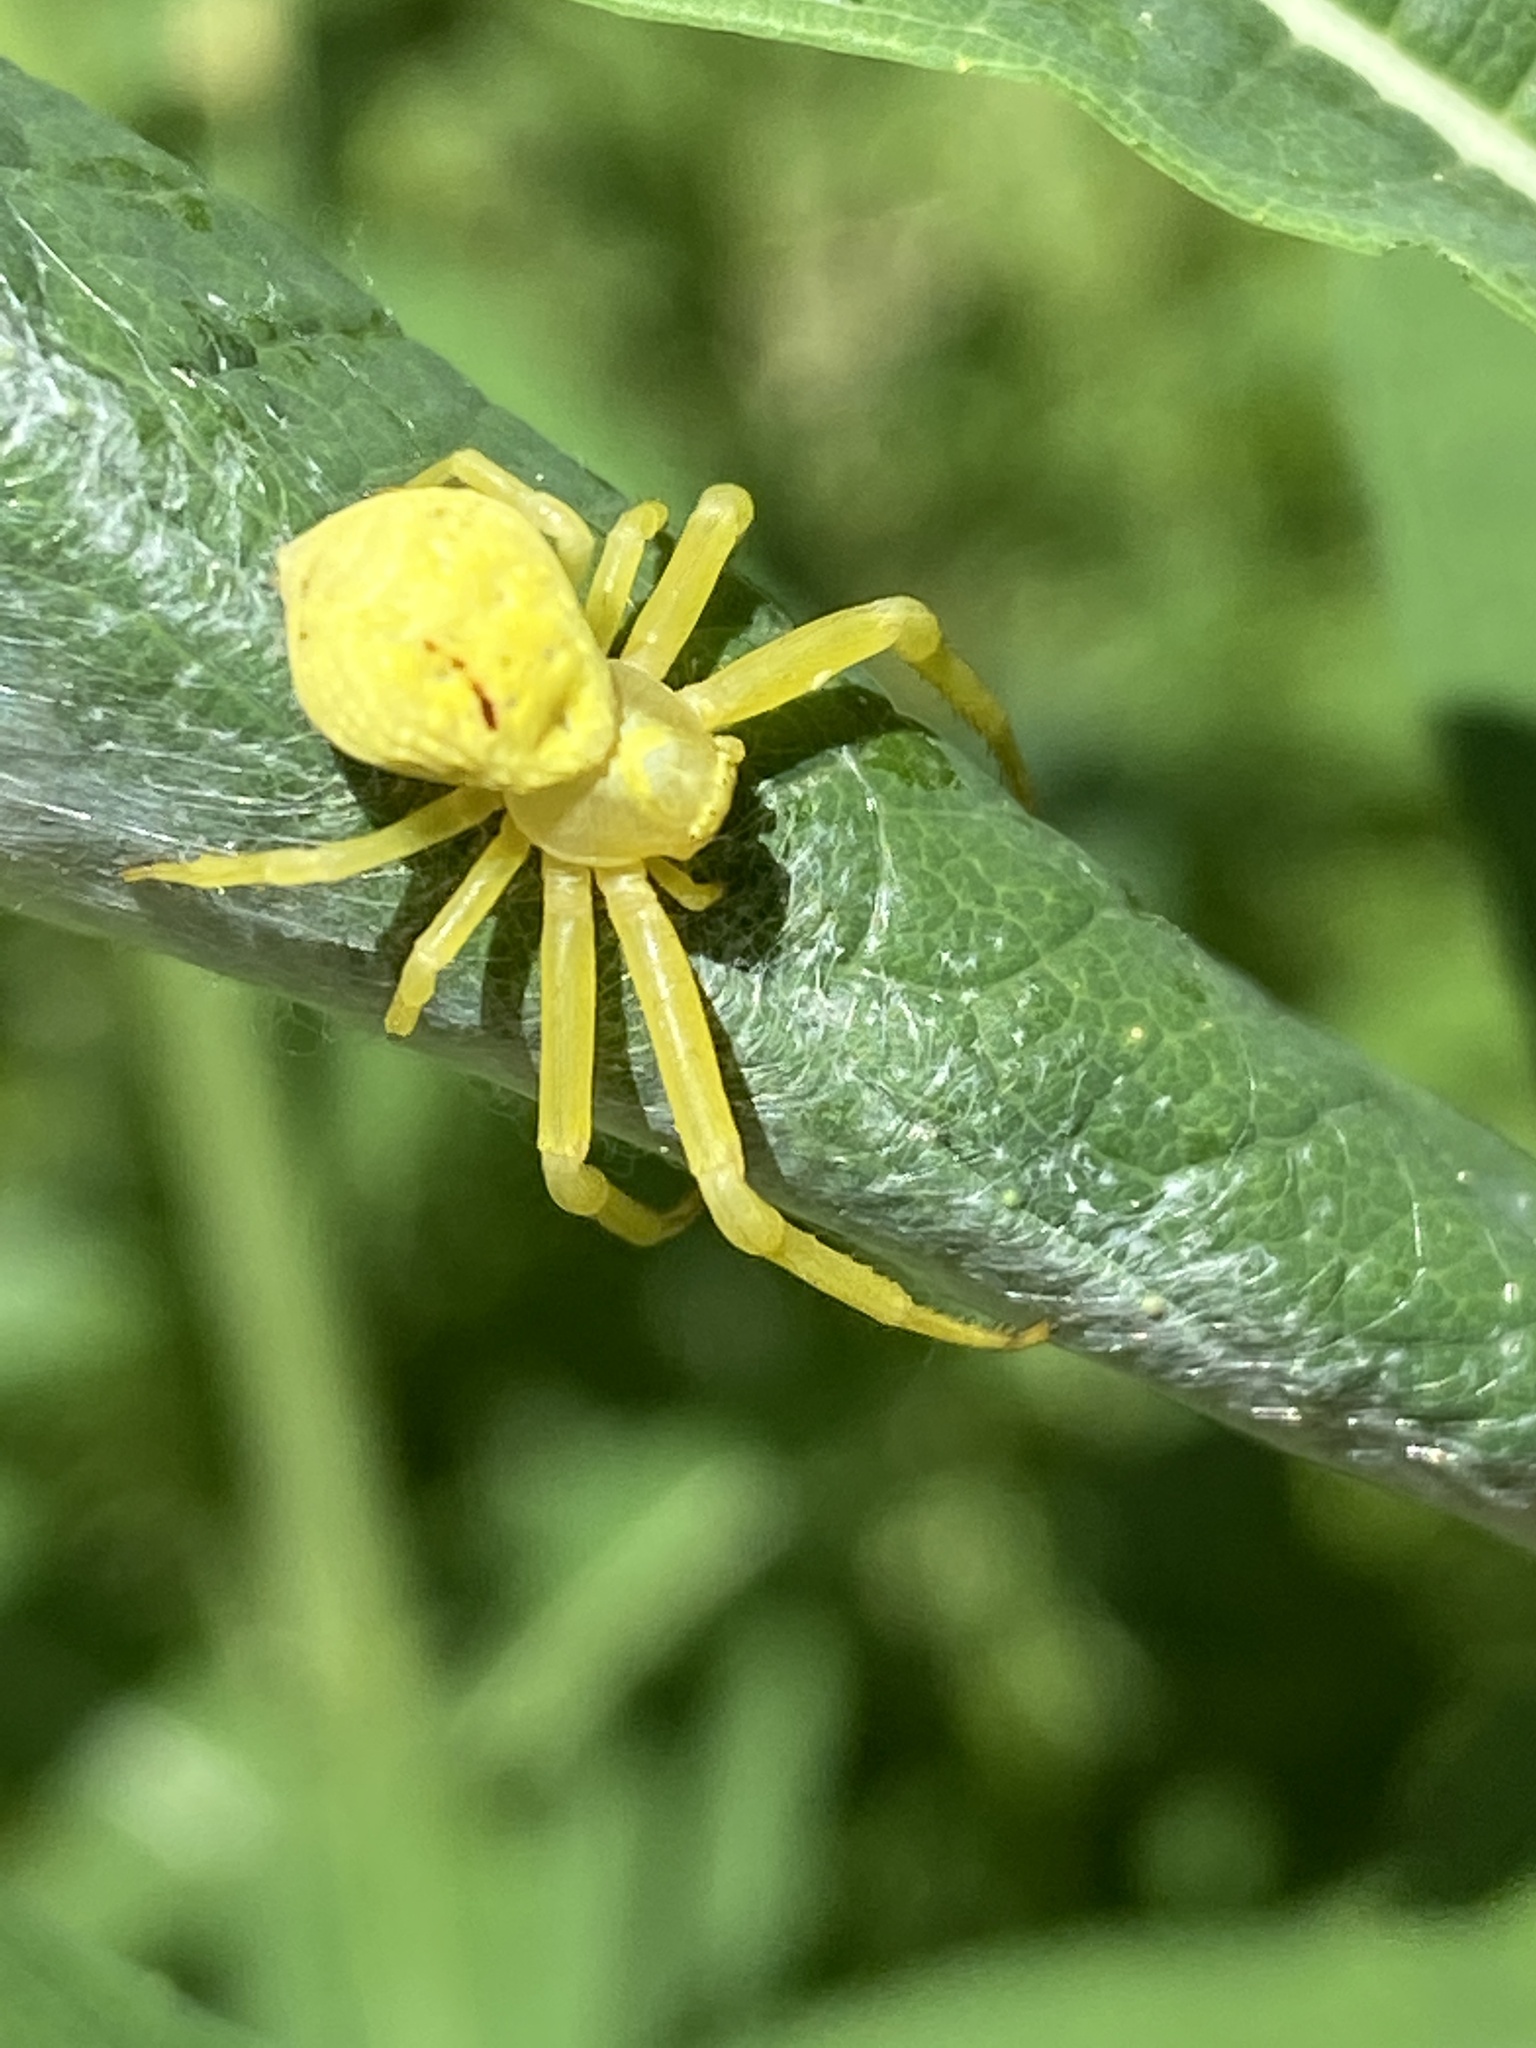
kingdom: Animalia
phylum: Arthropoda
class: Arachnida
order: Araneae
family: Thomisidae
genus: Misumena
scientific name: Misumena vatia
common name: Goldenrod crab spider
